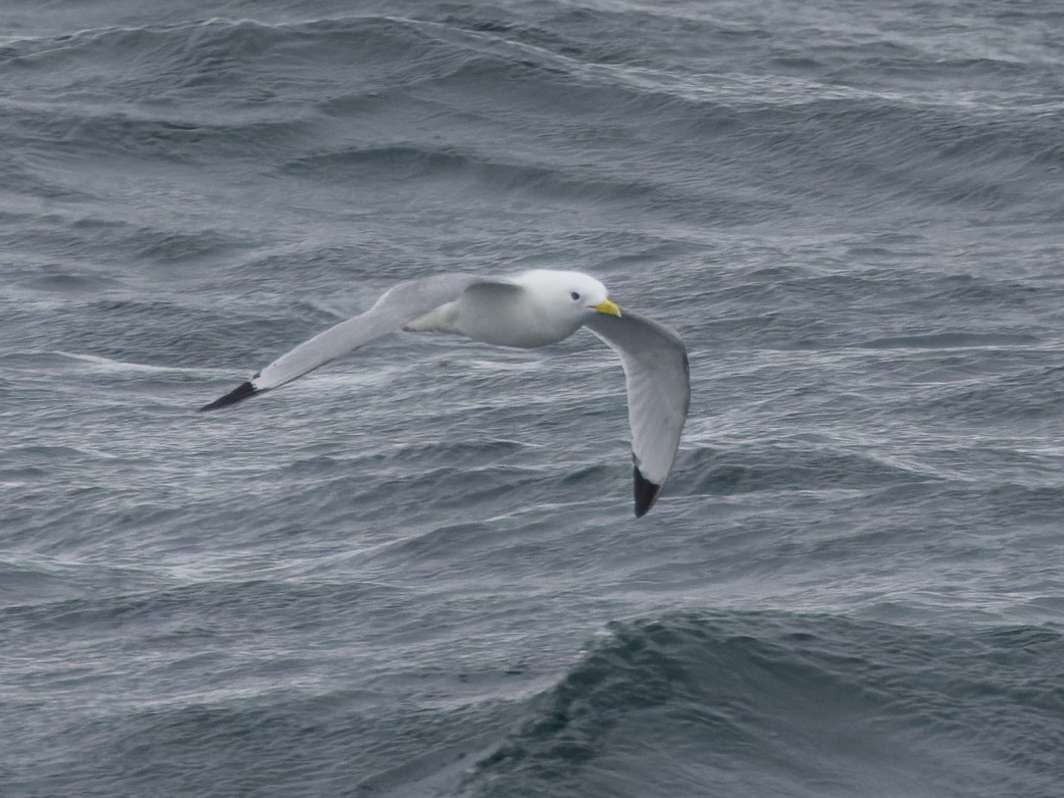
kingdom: Animalia
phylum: Chordata
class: Aves
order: Charadriiformes
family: Laridae
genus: Rissa
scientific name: Rissa tridactyla
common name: Black-legged kittiwake
